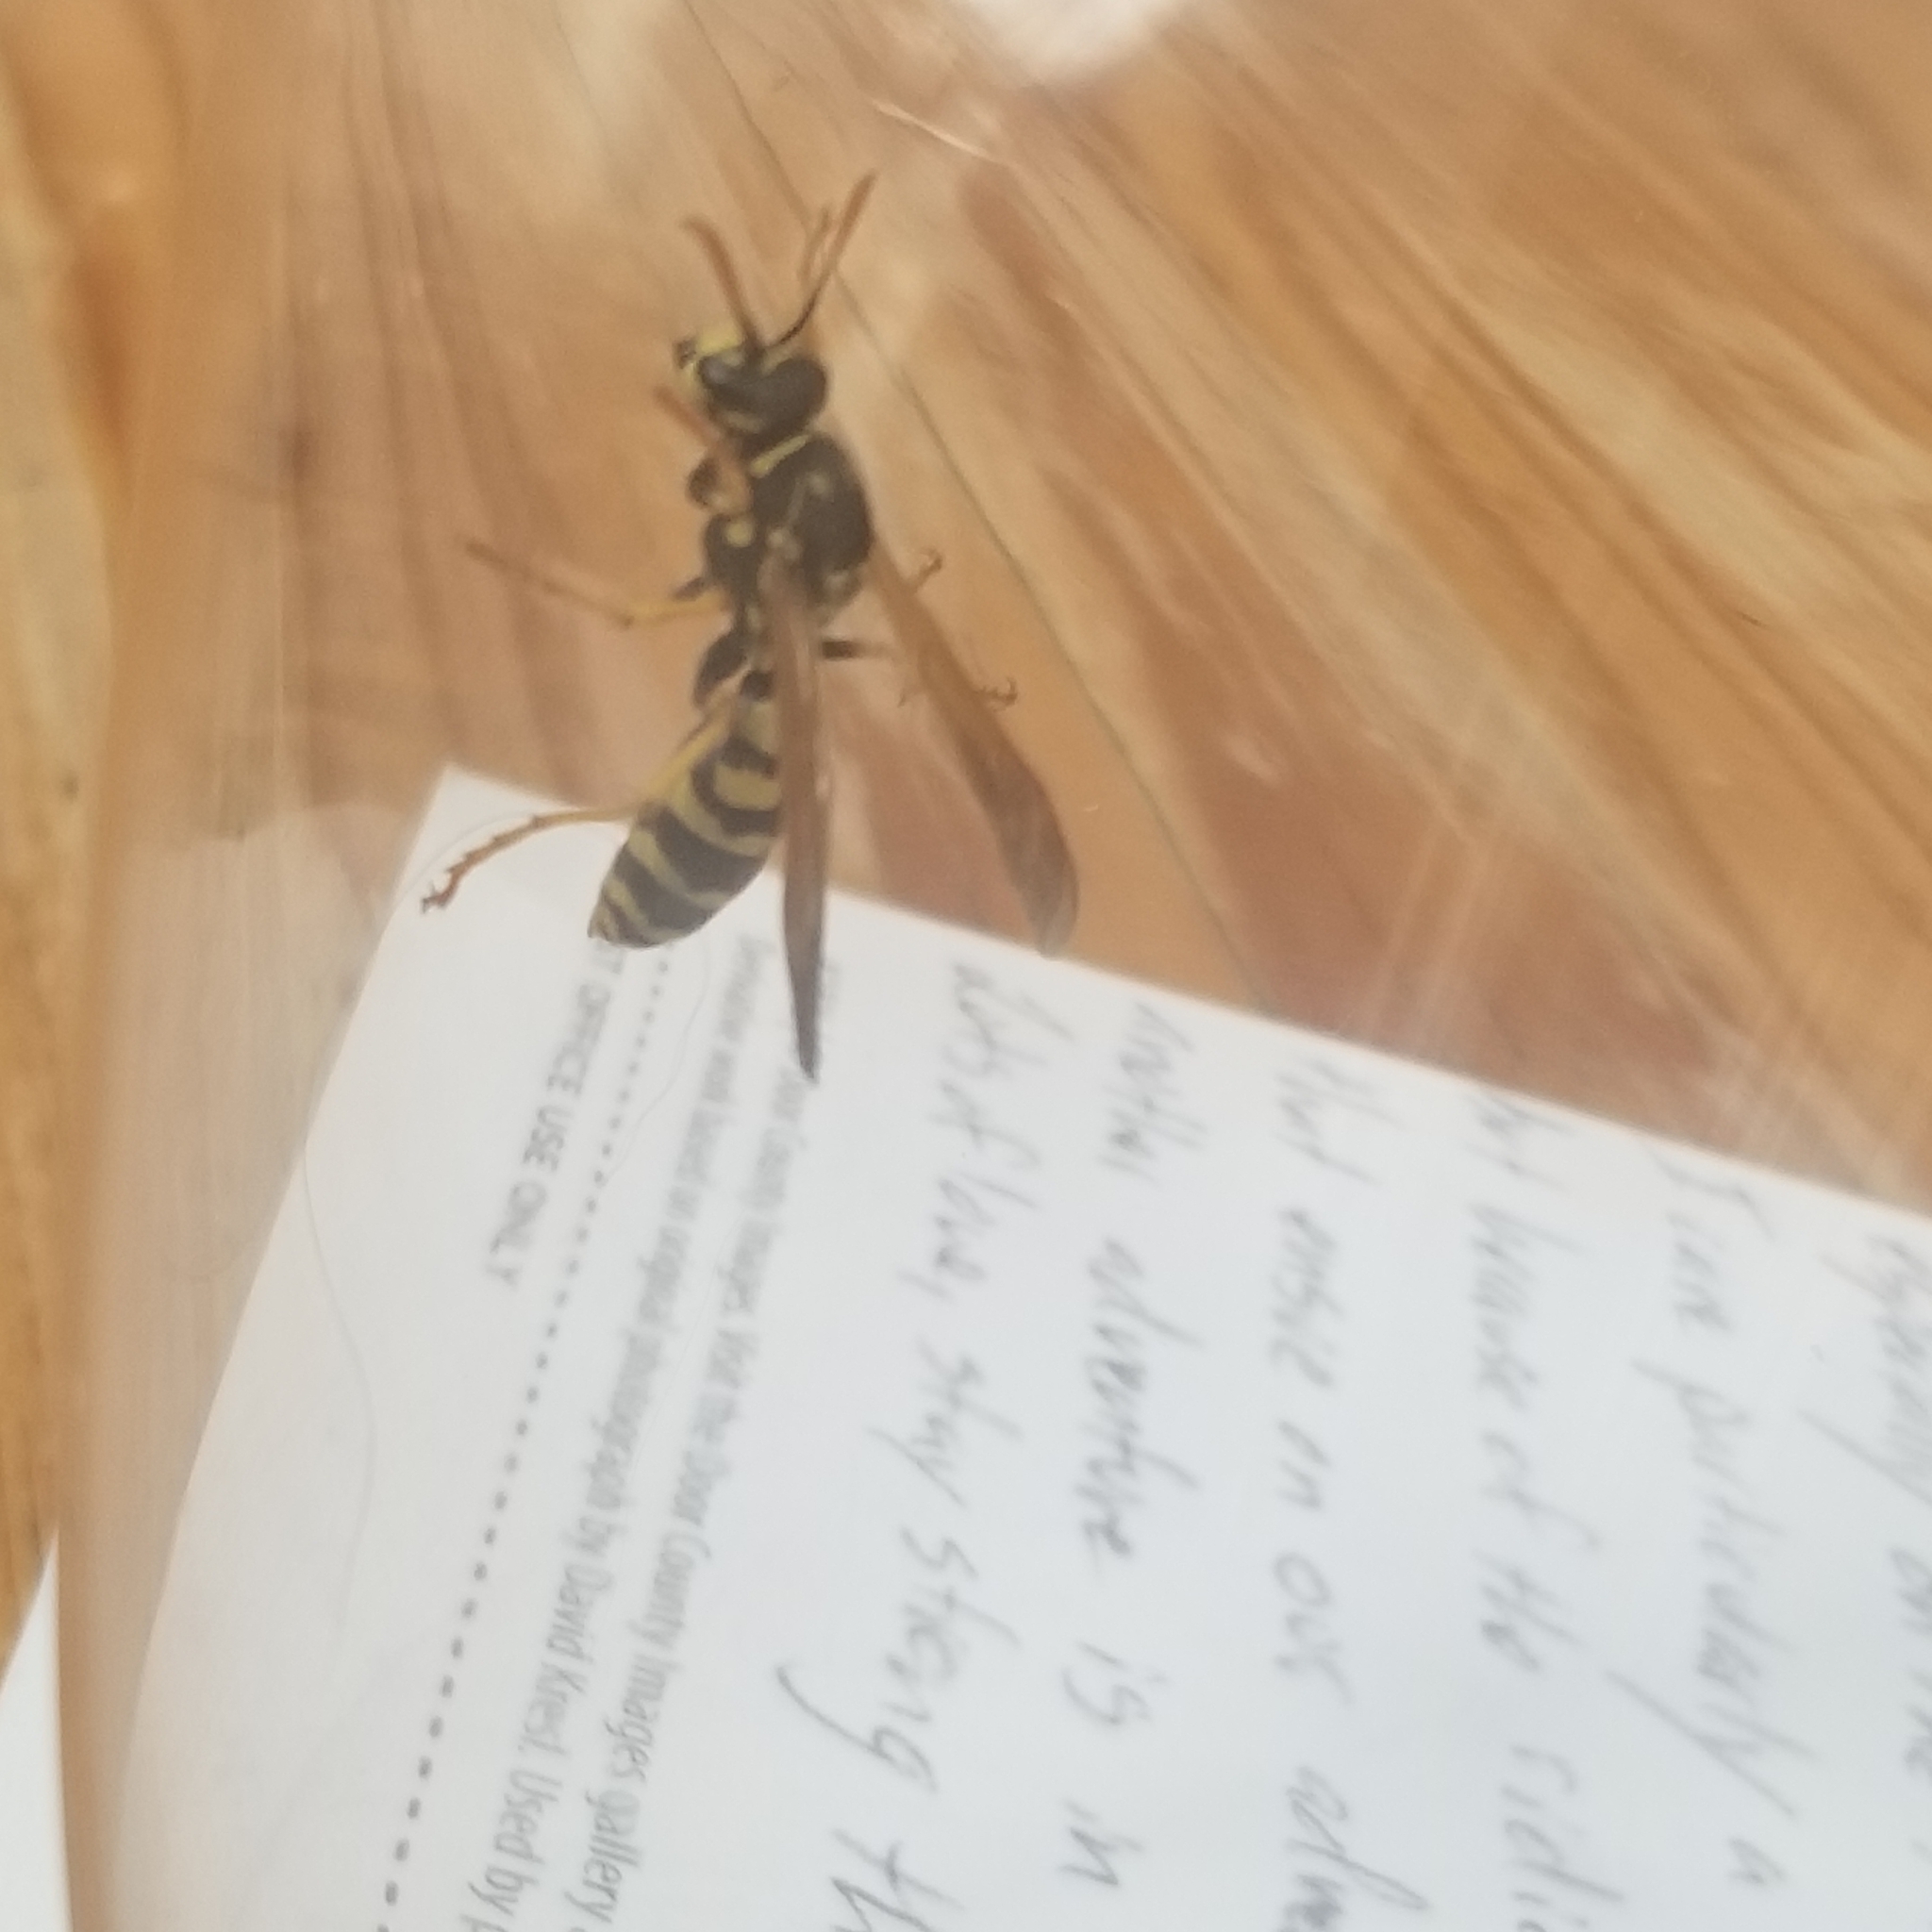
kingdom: Animalia
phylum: Arthropoda
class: Insecta
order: Hymenoptera
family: Eumenidae
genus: Polistes
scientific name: Polistes dominula
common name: Paper wasp
